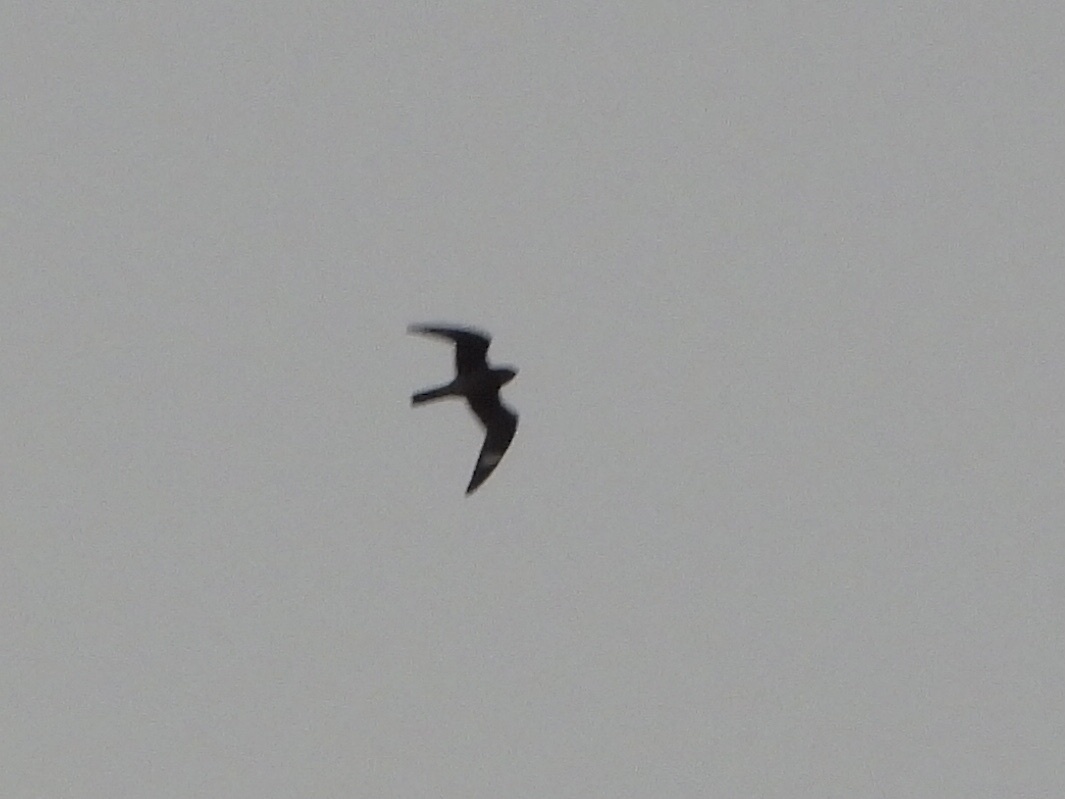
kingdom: Animalia
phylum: Chordata
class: Aves
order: Caprimulgiformes
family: Caprimulgidae
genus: Chordeiles
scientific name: Chordeiles minor
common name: Common nighthawk
